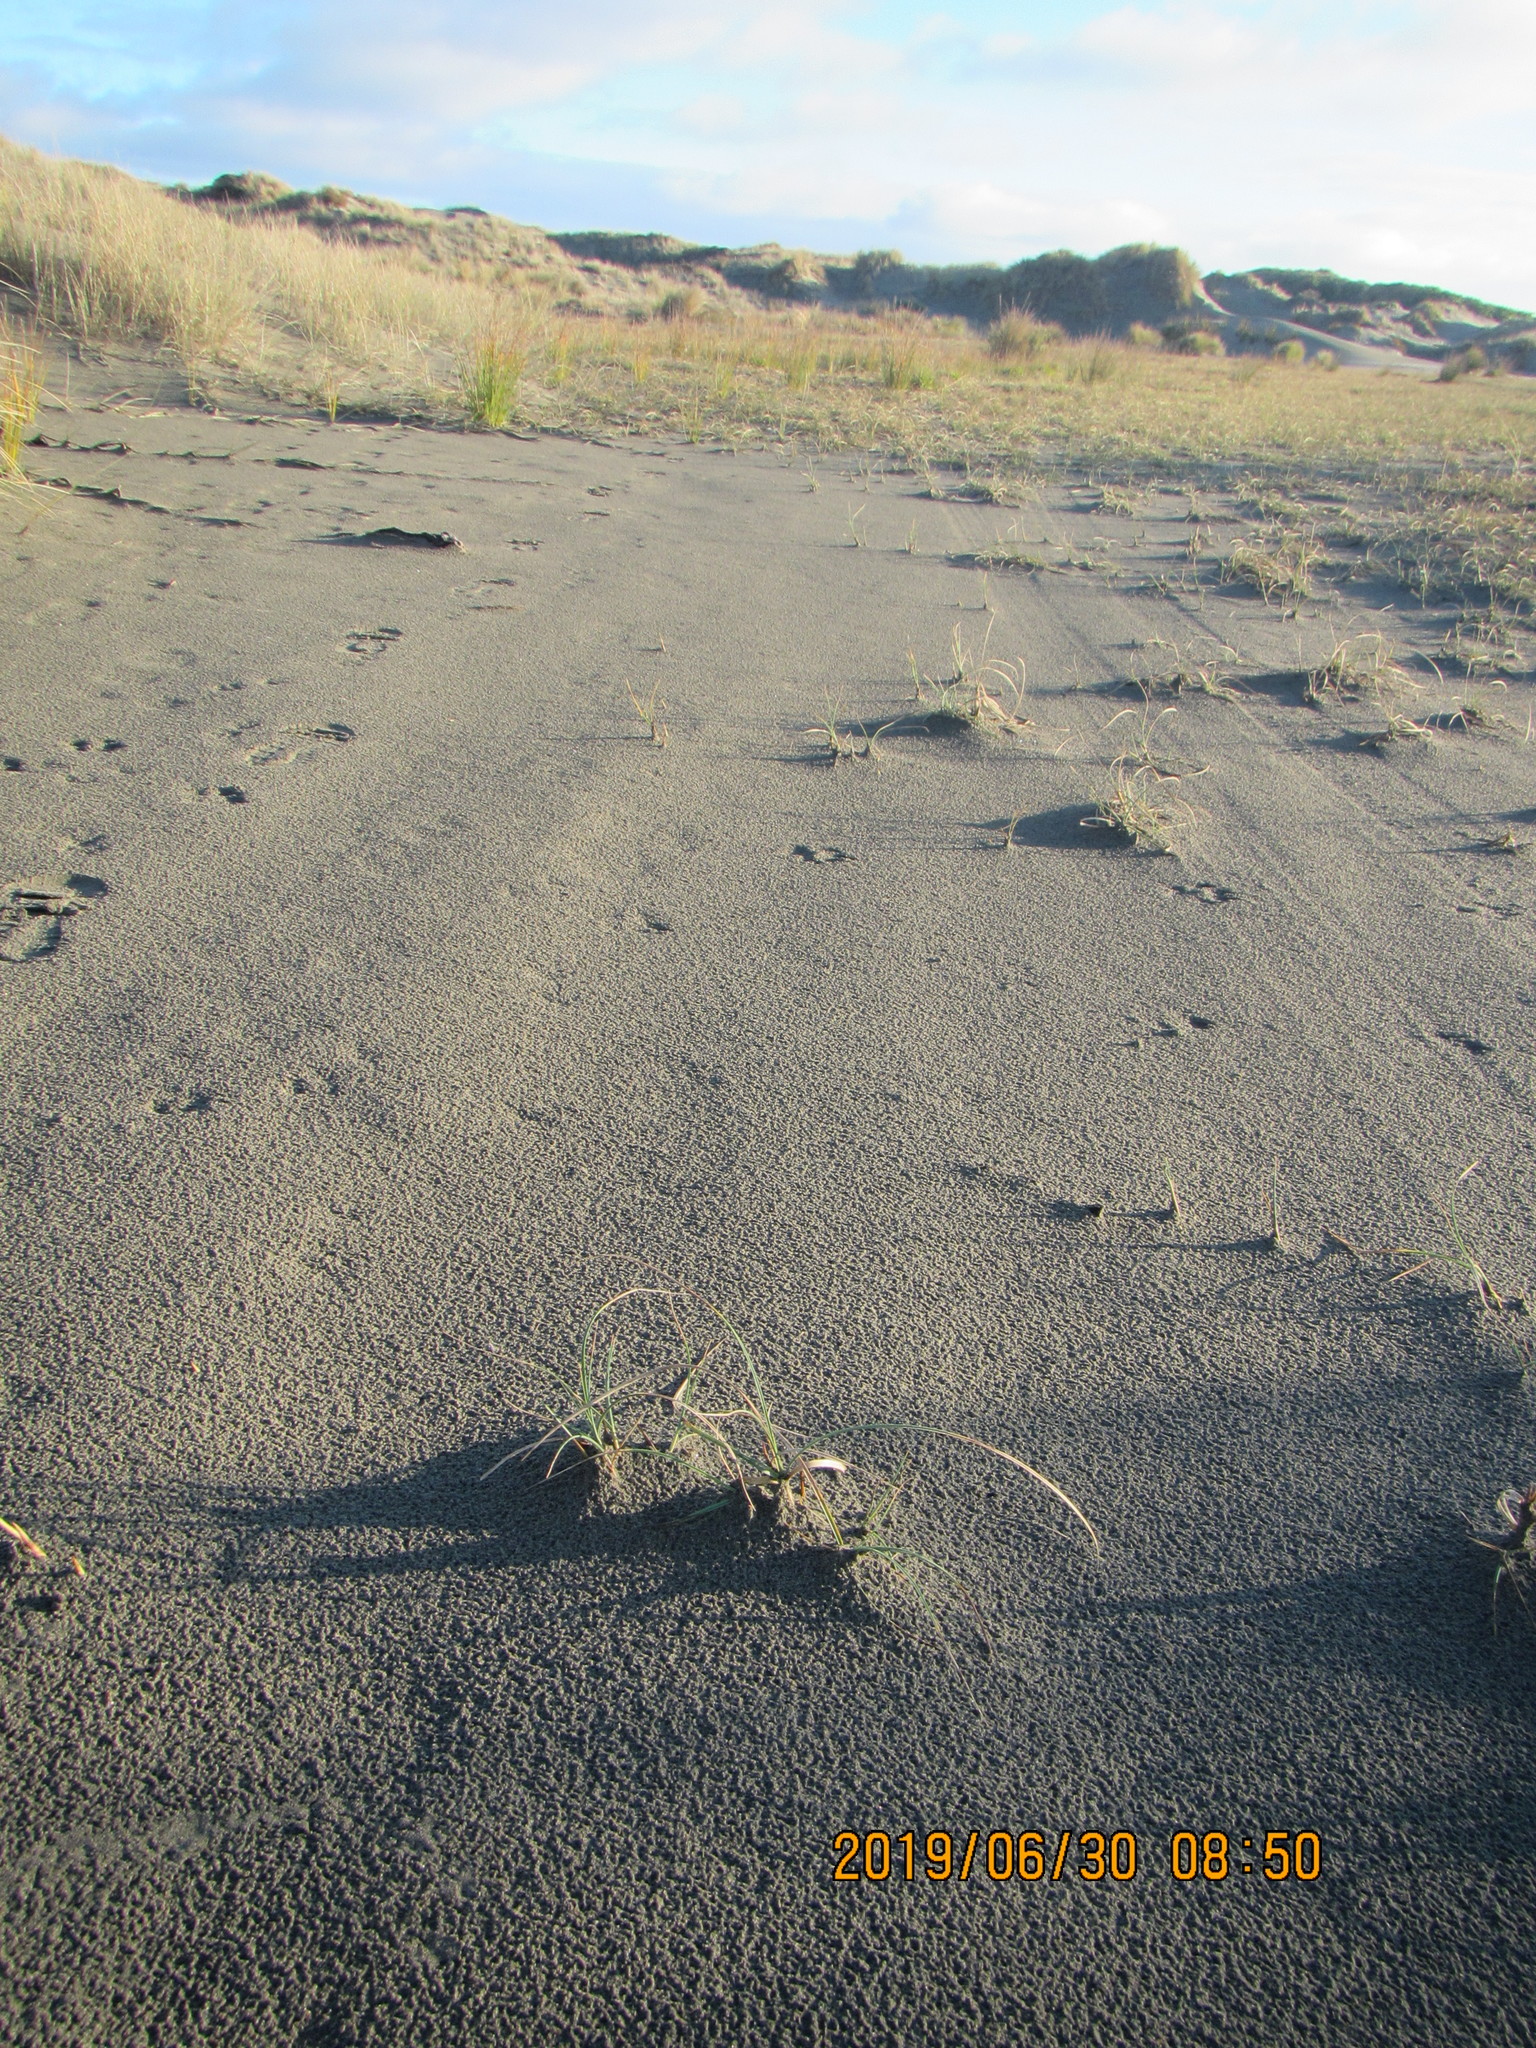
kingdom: Plantae
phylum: Tracheophyta
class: Liliopsida
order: Poales
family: Cyperaceae
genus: Carex
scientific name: Carex pumila
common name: Dwarf sedge
